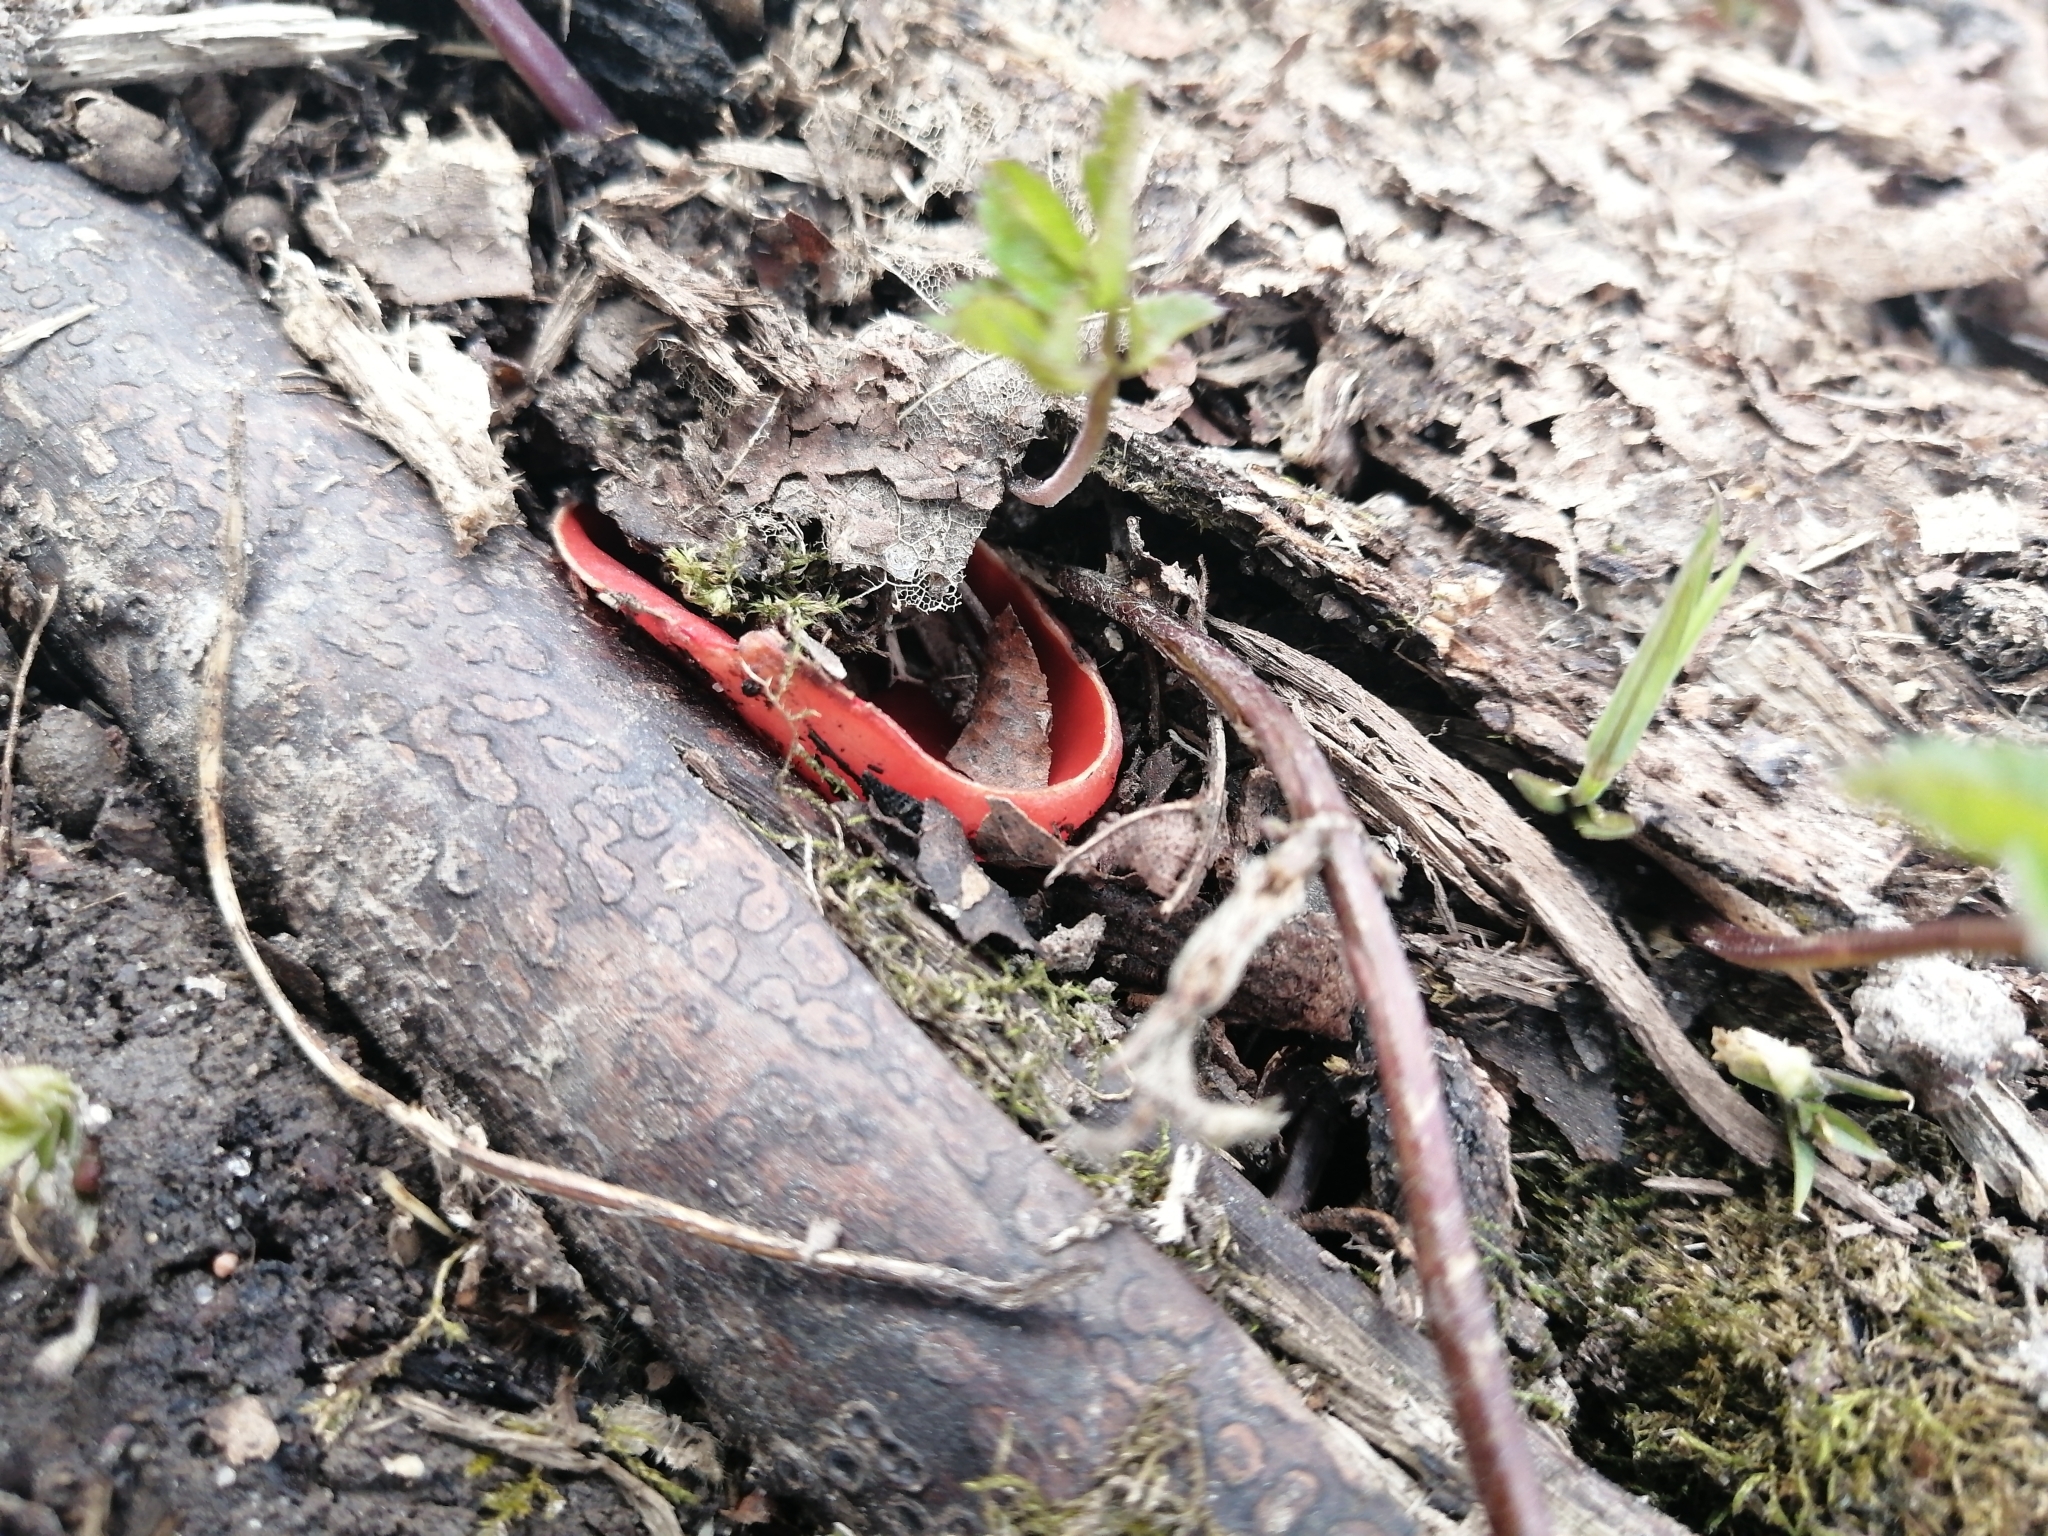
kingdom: Fungi
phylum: Ascomycota
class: Pezizomycetes
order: Pezizales
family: Sarcoscyphaceae
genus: Sarcoscypha
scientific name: Sarcoscypha austriaca
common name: Scarlet elfcup
